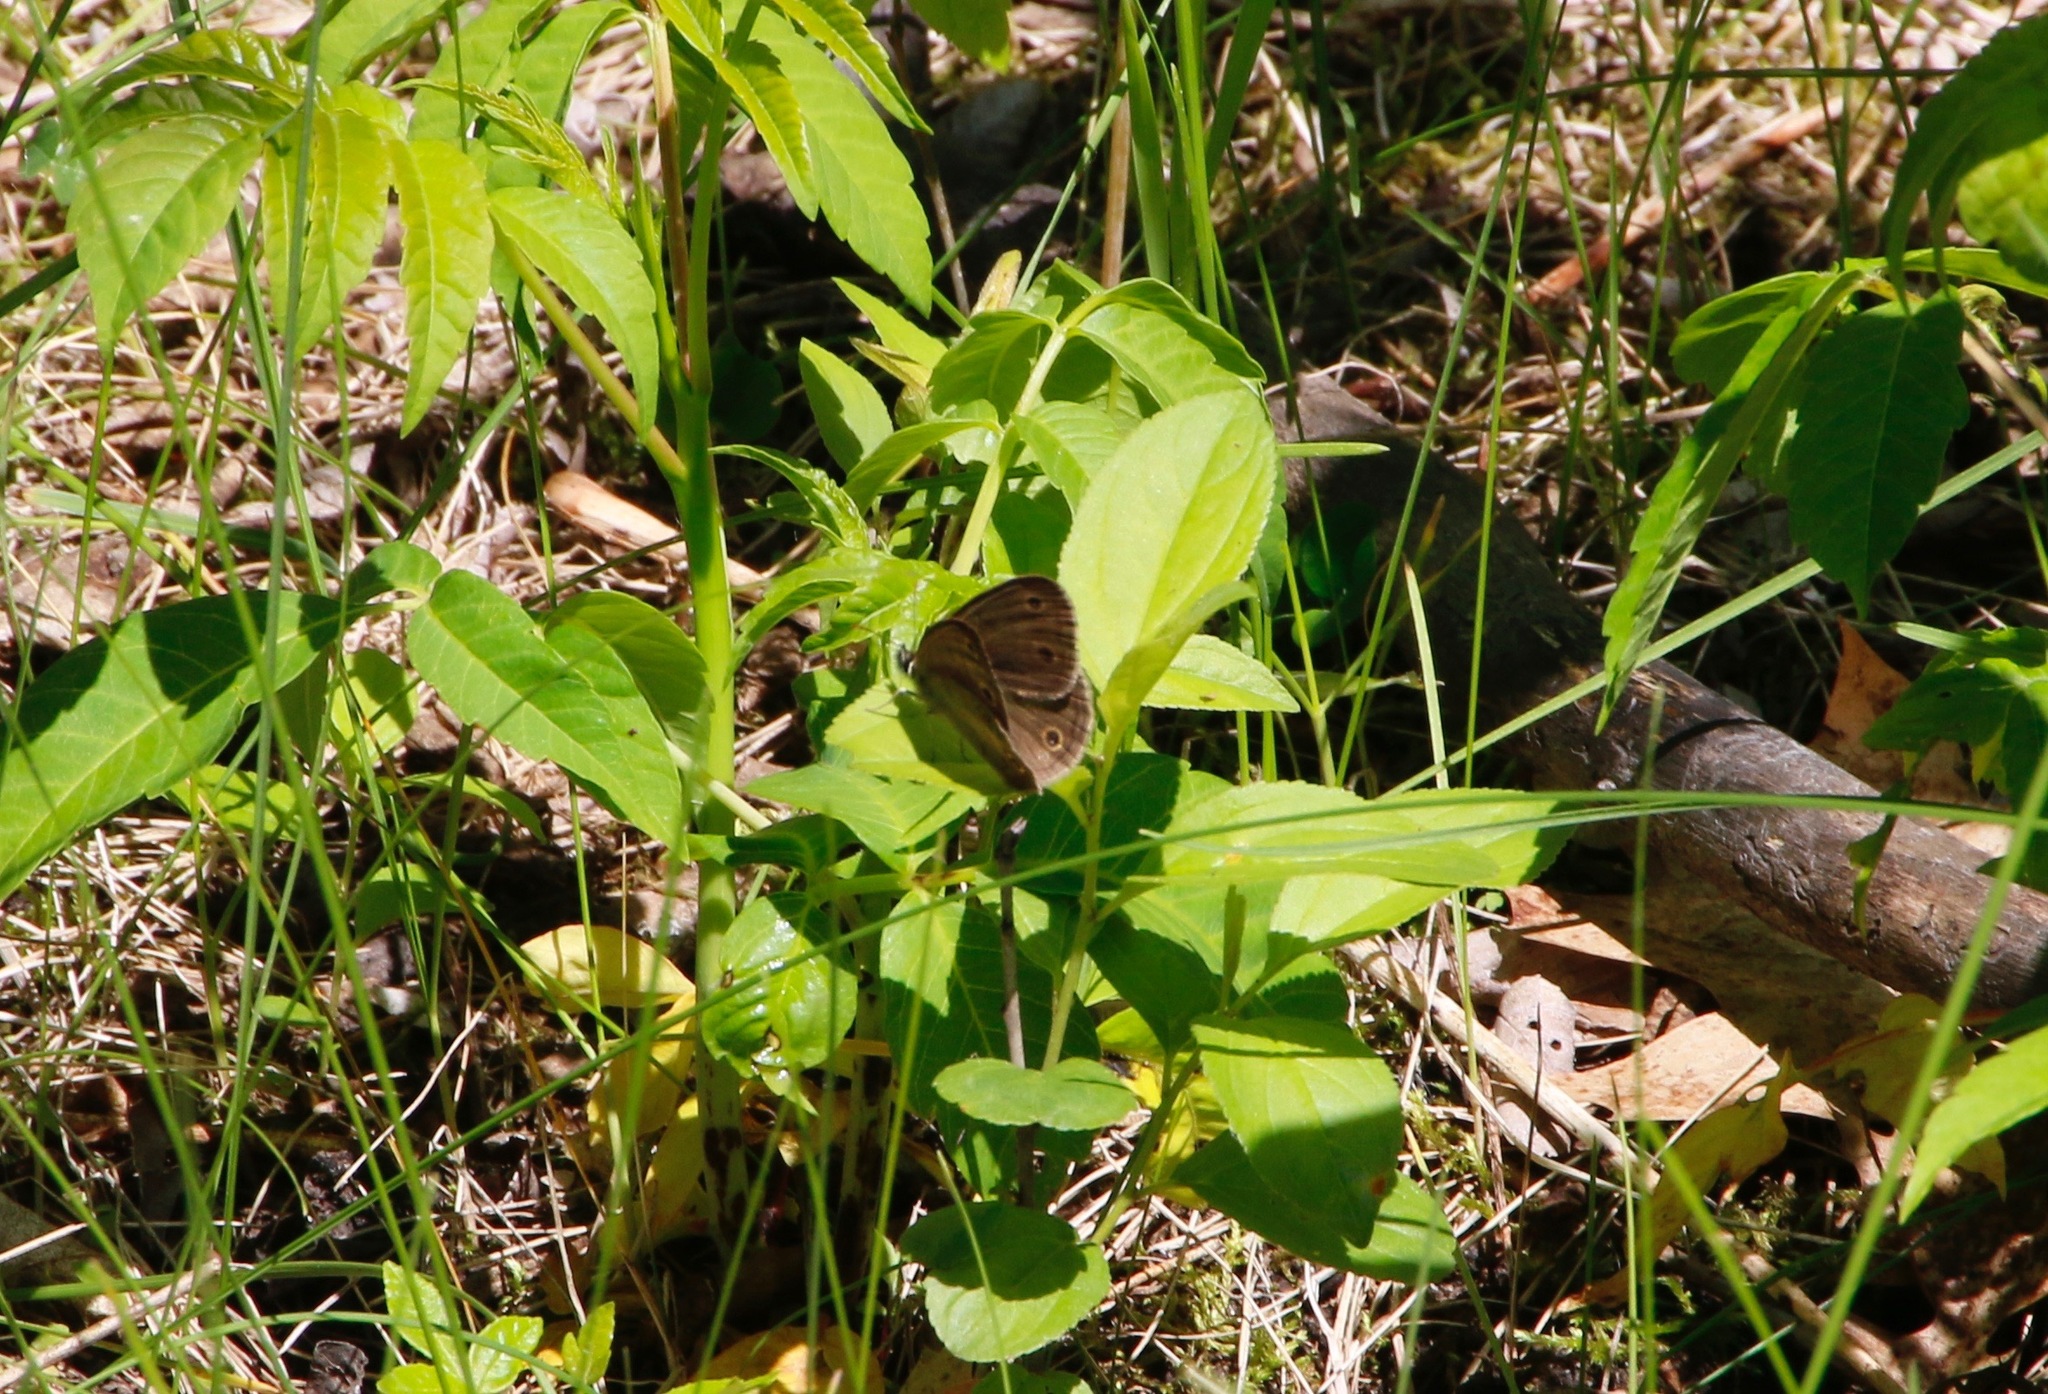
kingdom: Animalia
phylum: Arthropoda
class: Insecta
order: Lepidoptera
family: Nymphalidae
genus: Euptychia
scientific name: Euptychia cymela
